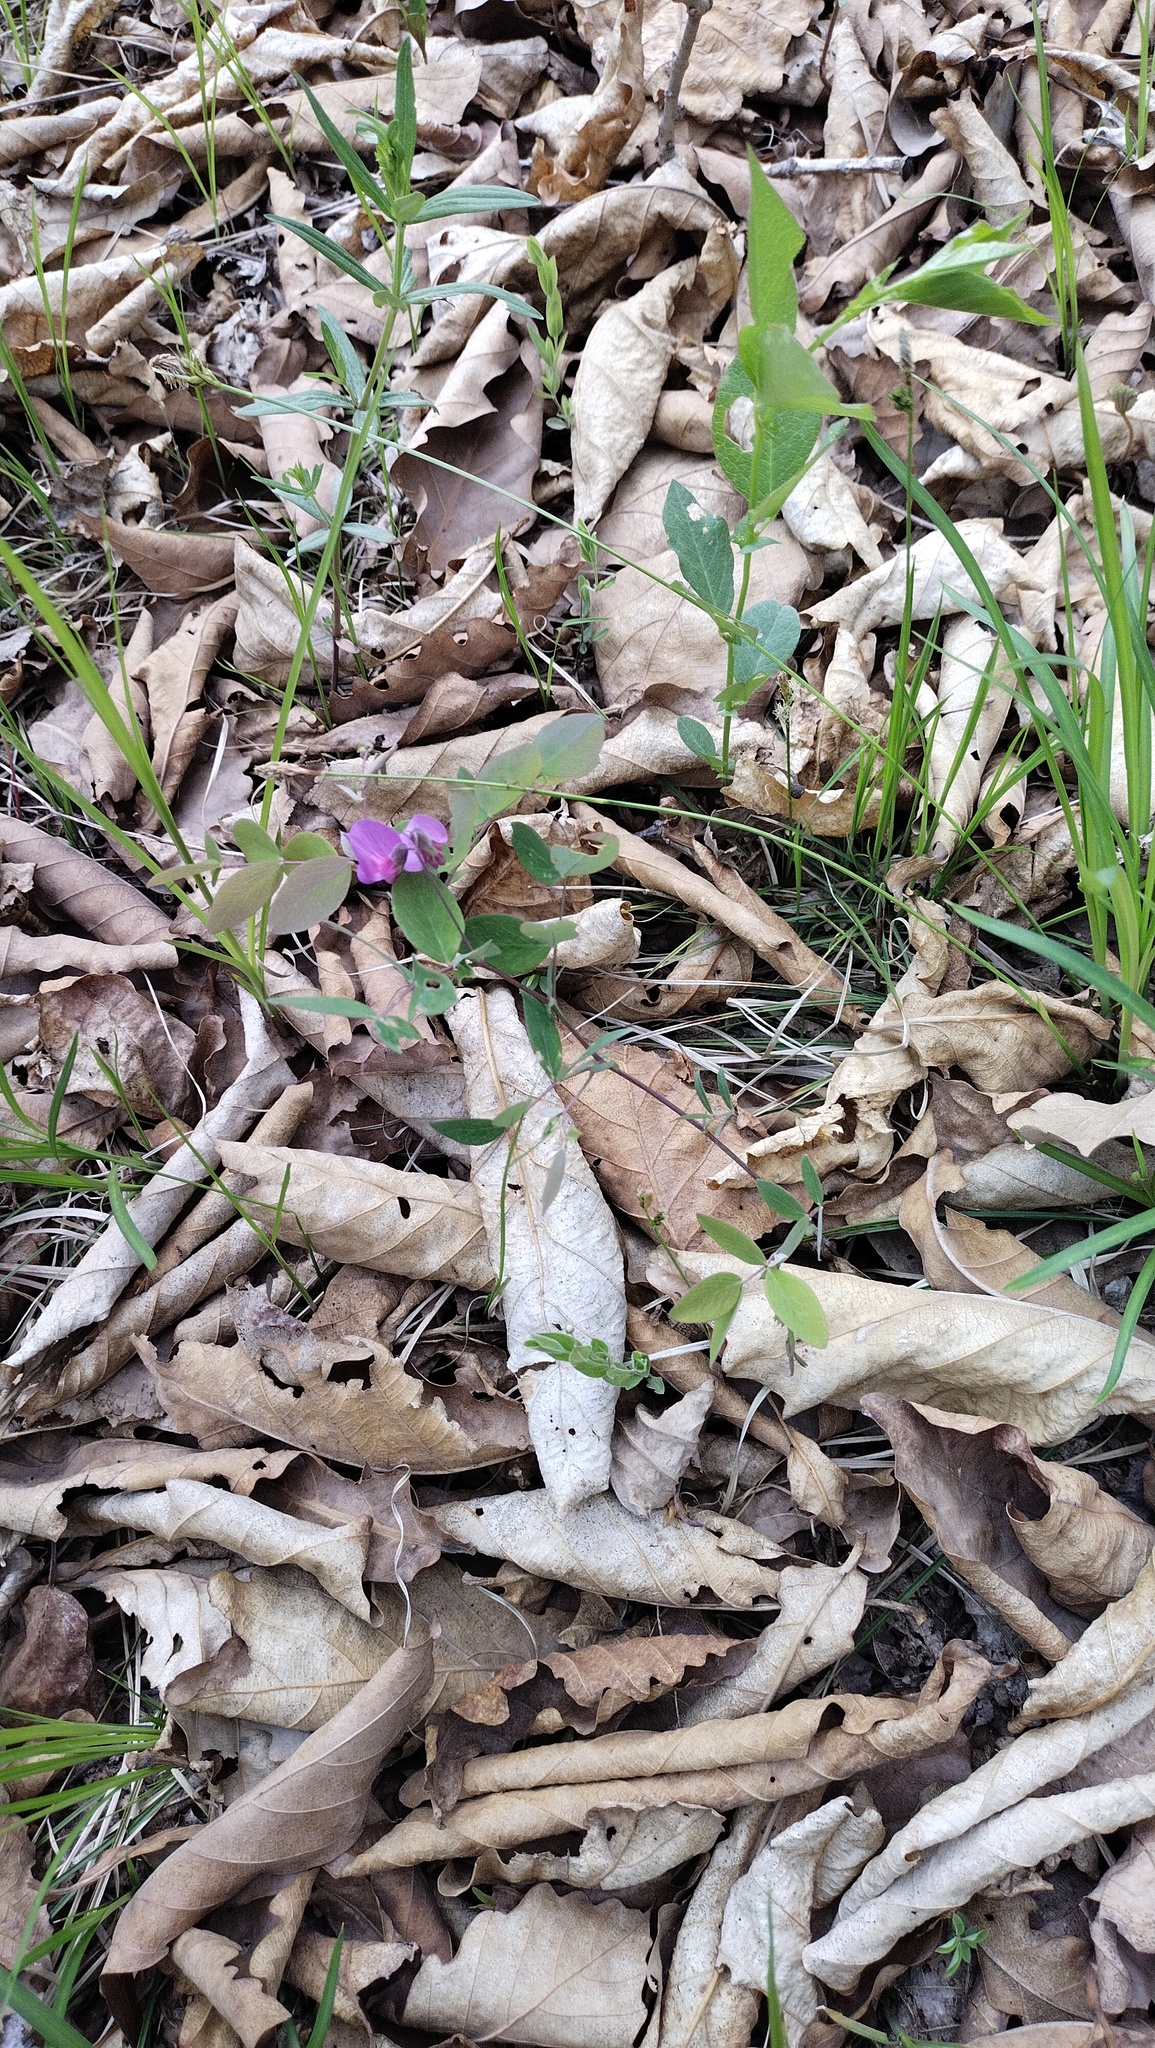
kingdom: Plantae
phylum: Tracheophyta
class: Magnoliopsida
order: Fabales
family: Fabaceae
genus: Lathyrus
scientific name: Lathyrus humilis
